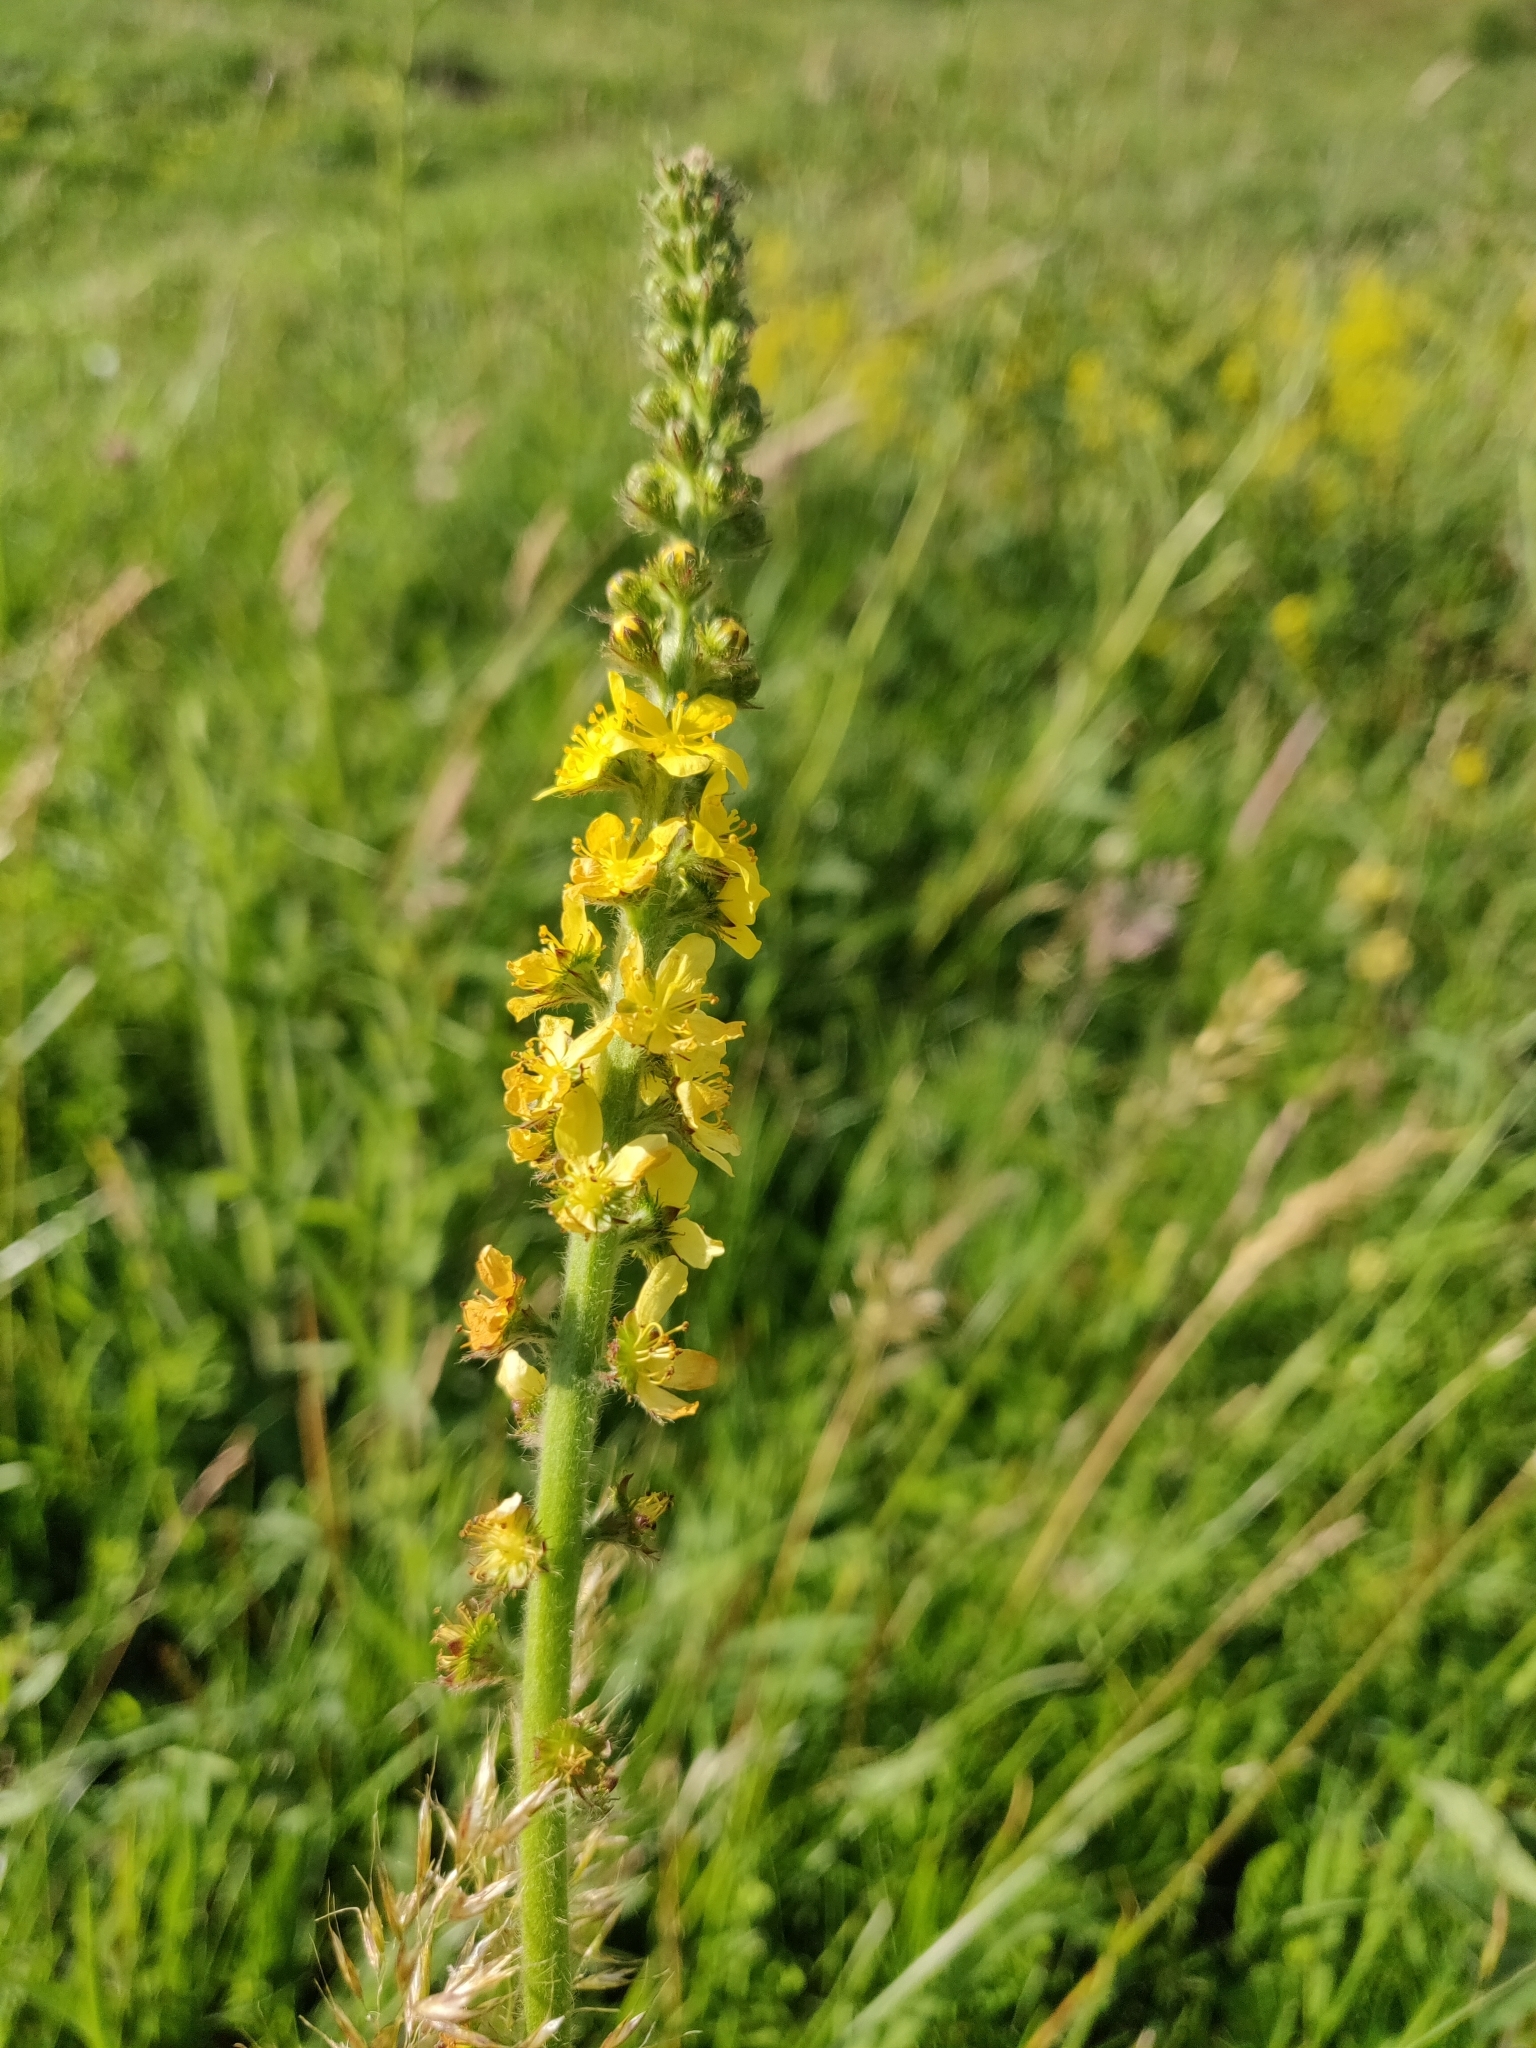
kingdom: Plantae
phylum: Tracheophyta
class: Magnoliopsida
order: Rosales
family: Rosaceae
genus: Agrimonia
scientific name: Agrimonia eupatoria
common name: Agrimony
